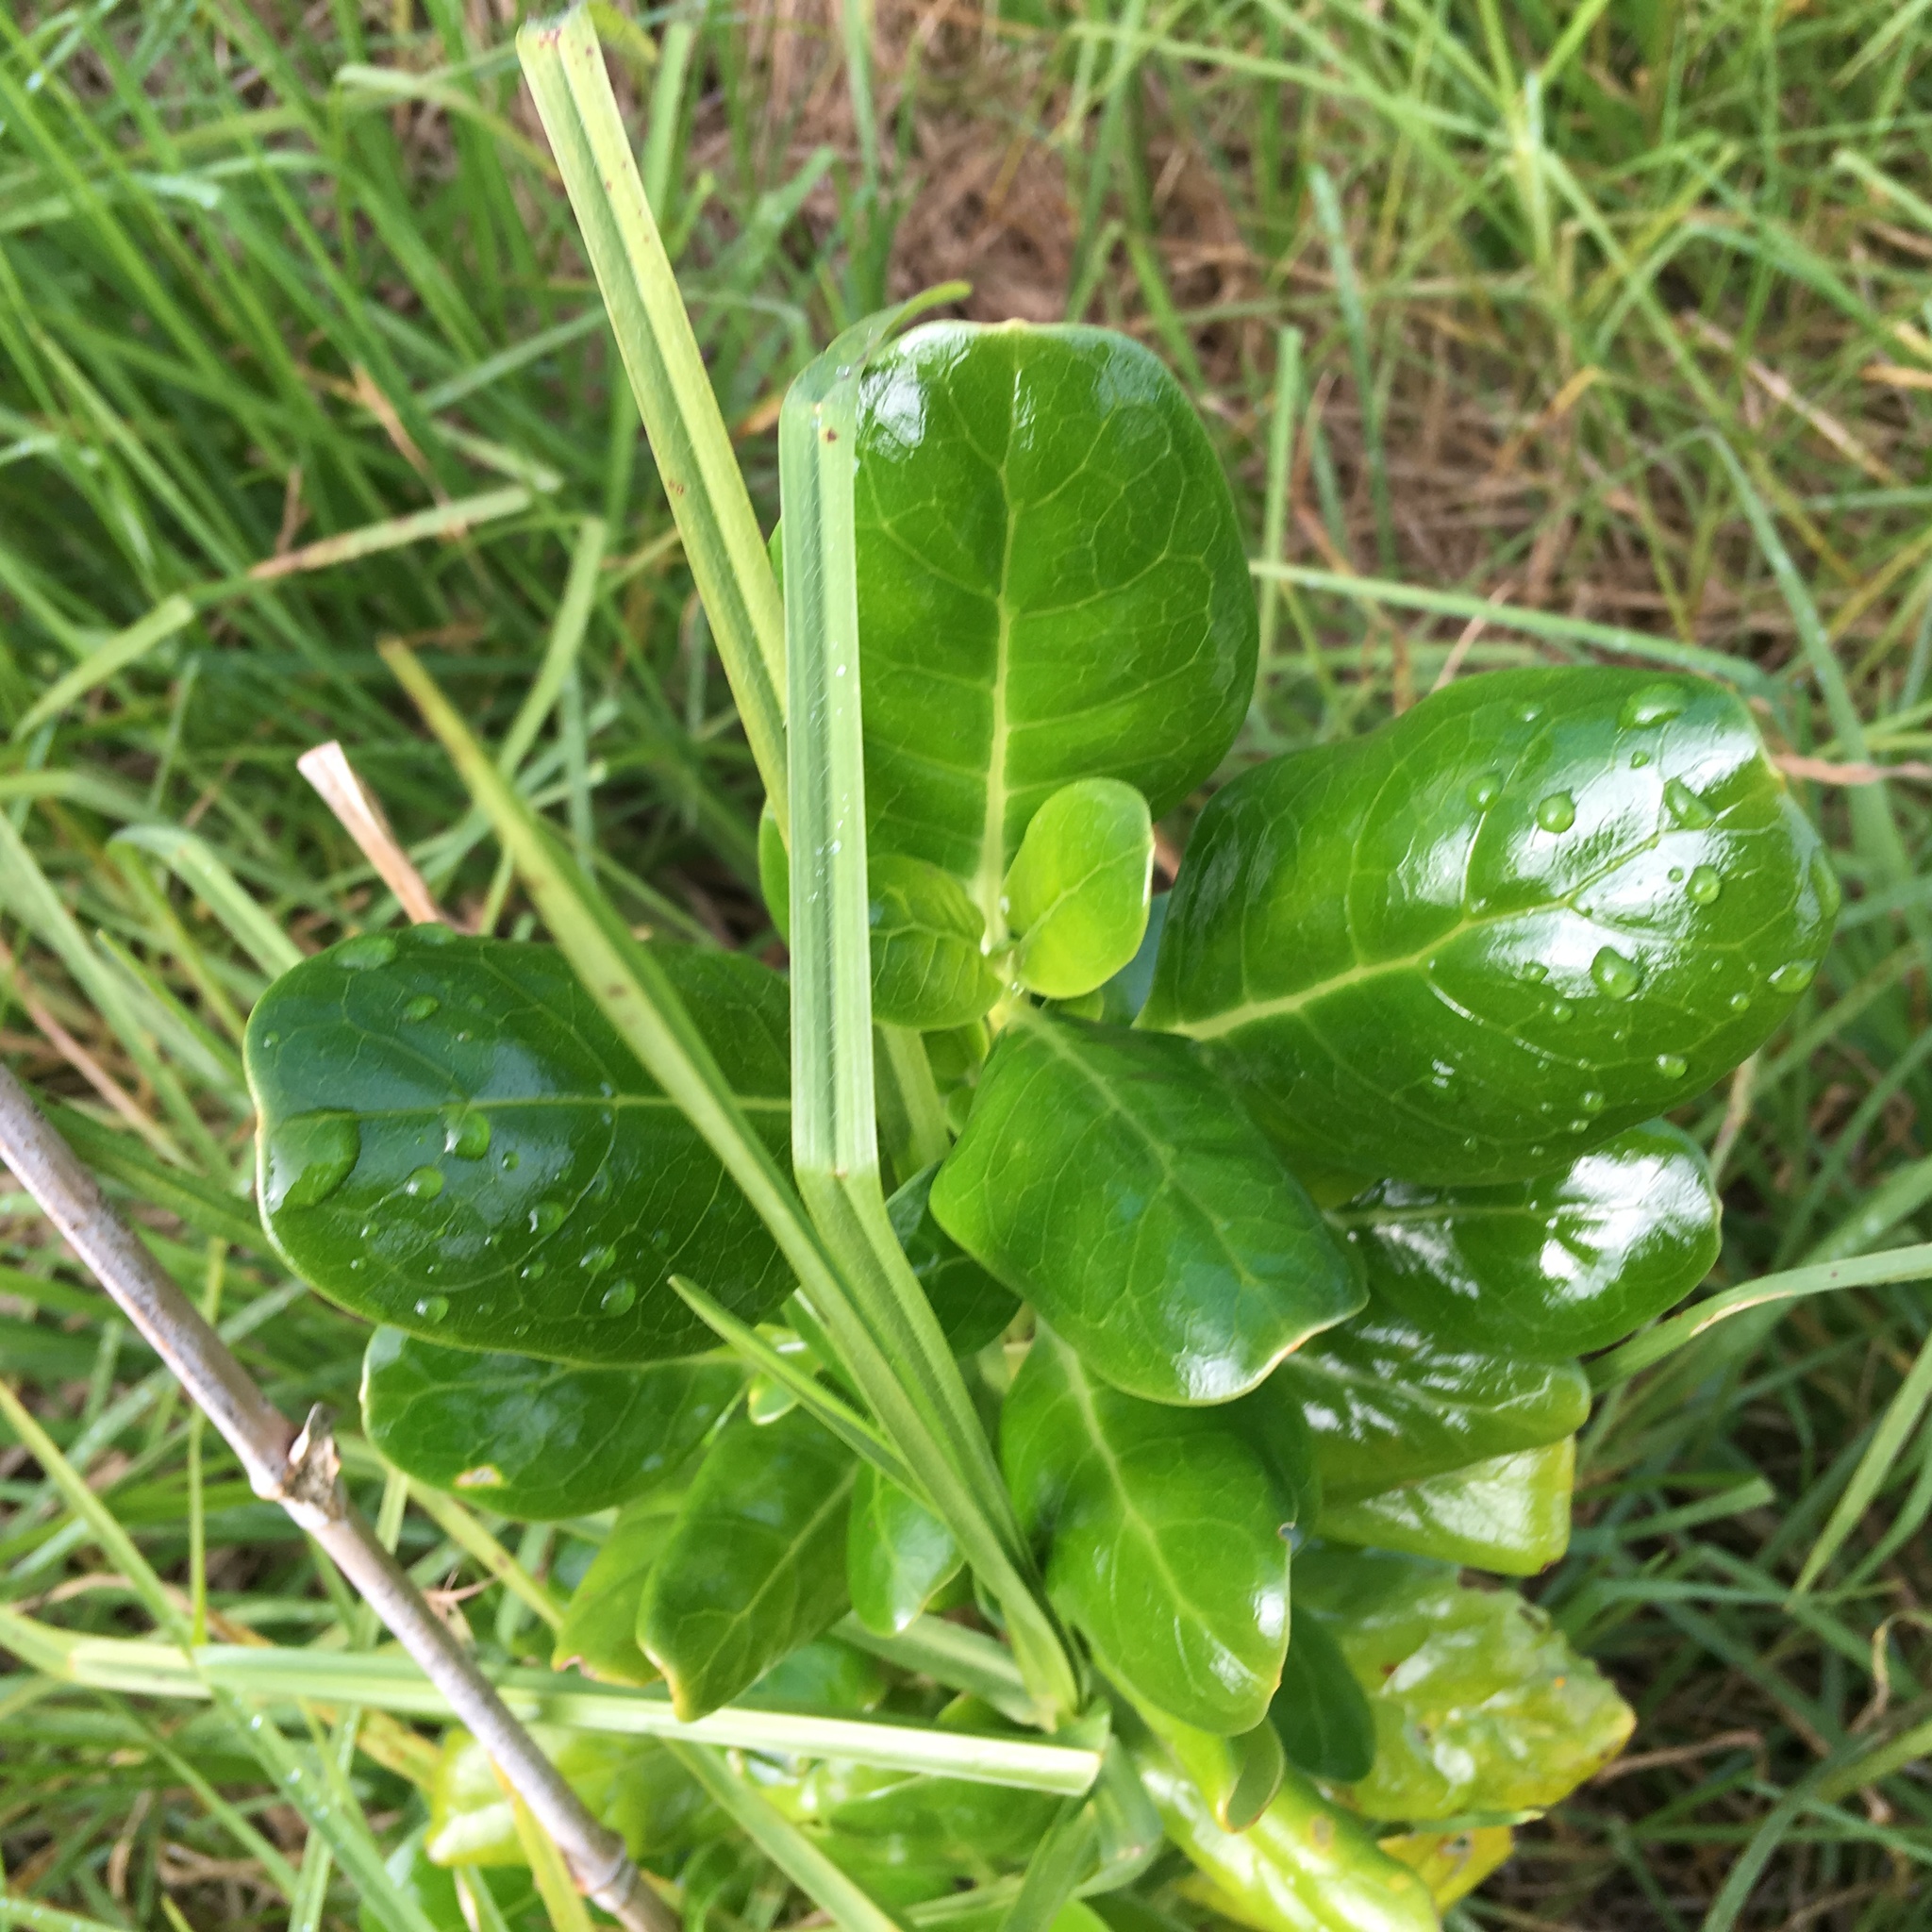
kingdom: Plantae
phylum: Tracheophyta
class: Magnoliopsida
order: Gentianales
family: Rubiaceae
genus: Coprosma
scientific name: Coprosma repens
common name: Tree bedstraw
